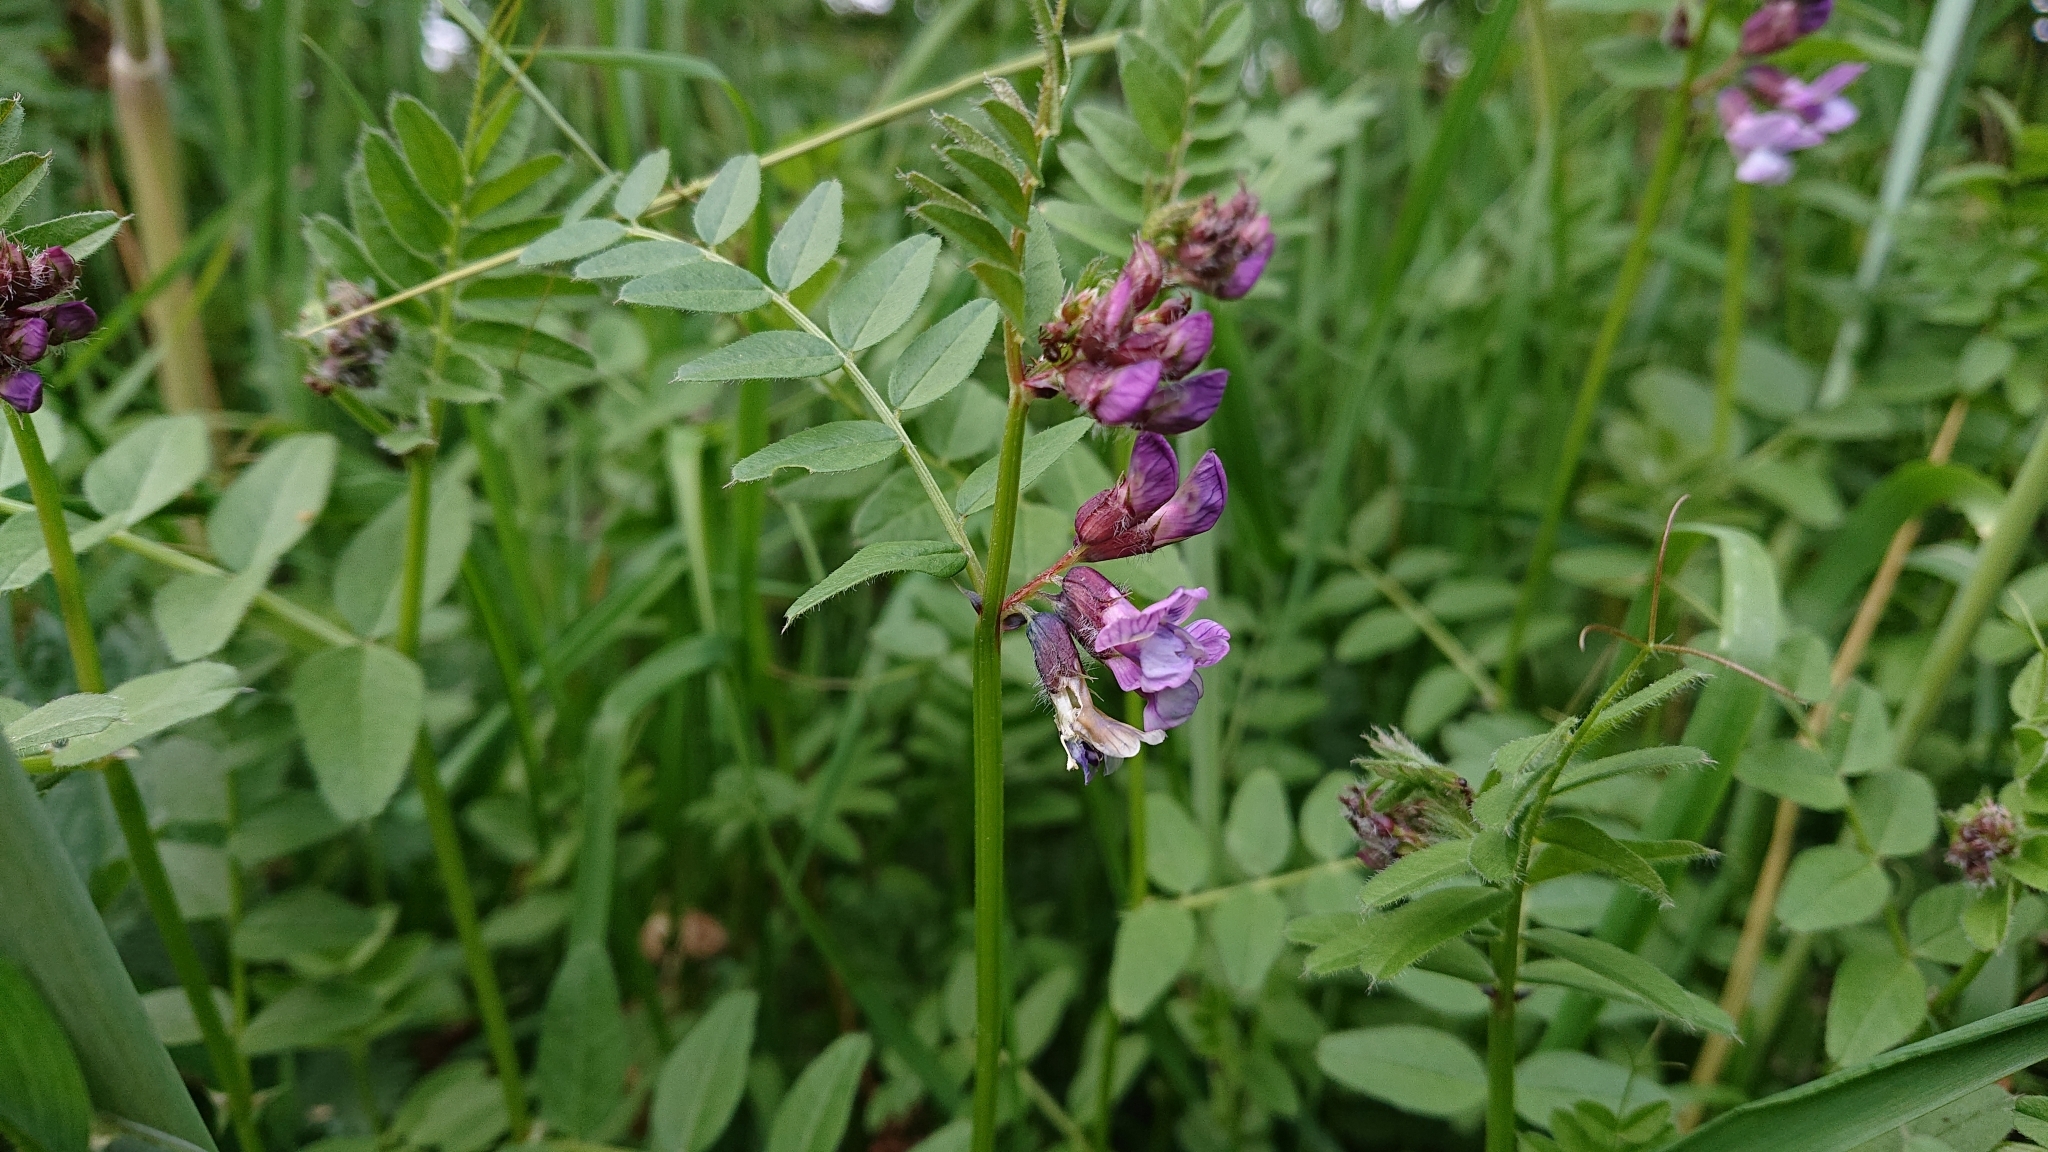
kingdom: Plantae
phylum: Tracheophyta
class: Magnoliopsida
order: Fabales
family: Fabaceae
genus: Vicia
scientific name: Vicia sepium
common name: Bush vetch
